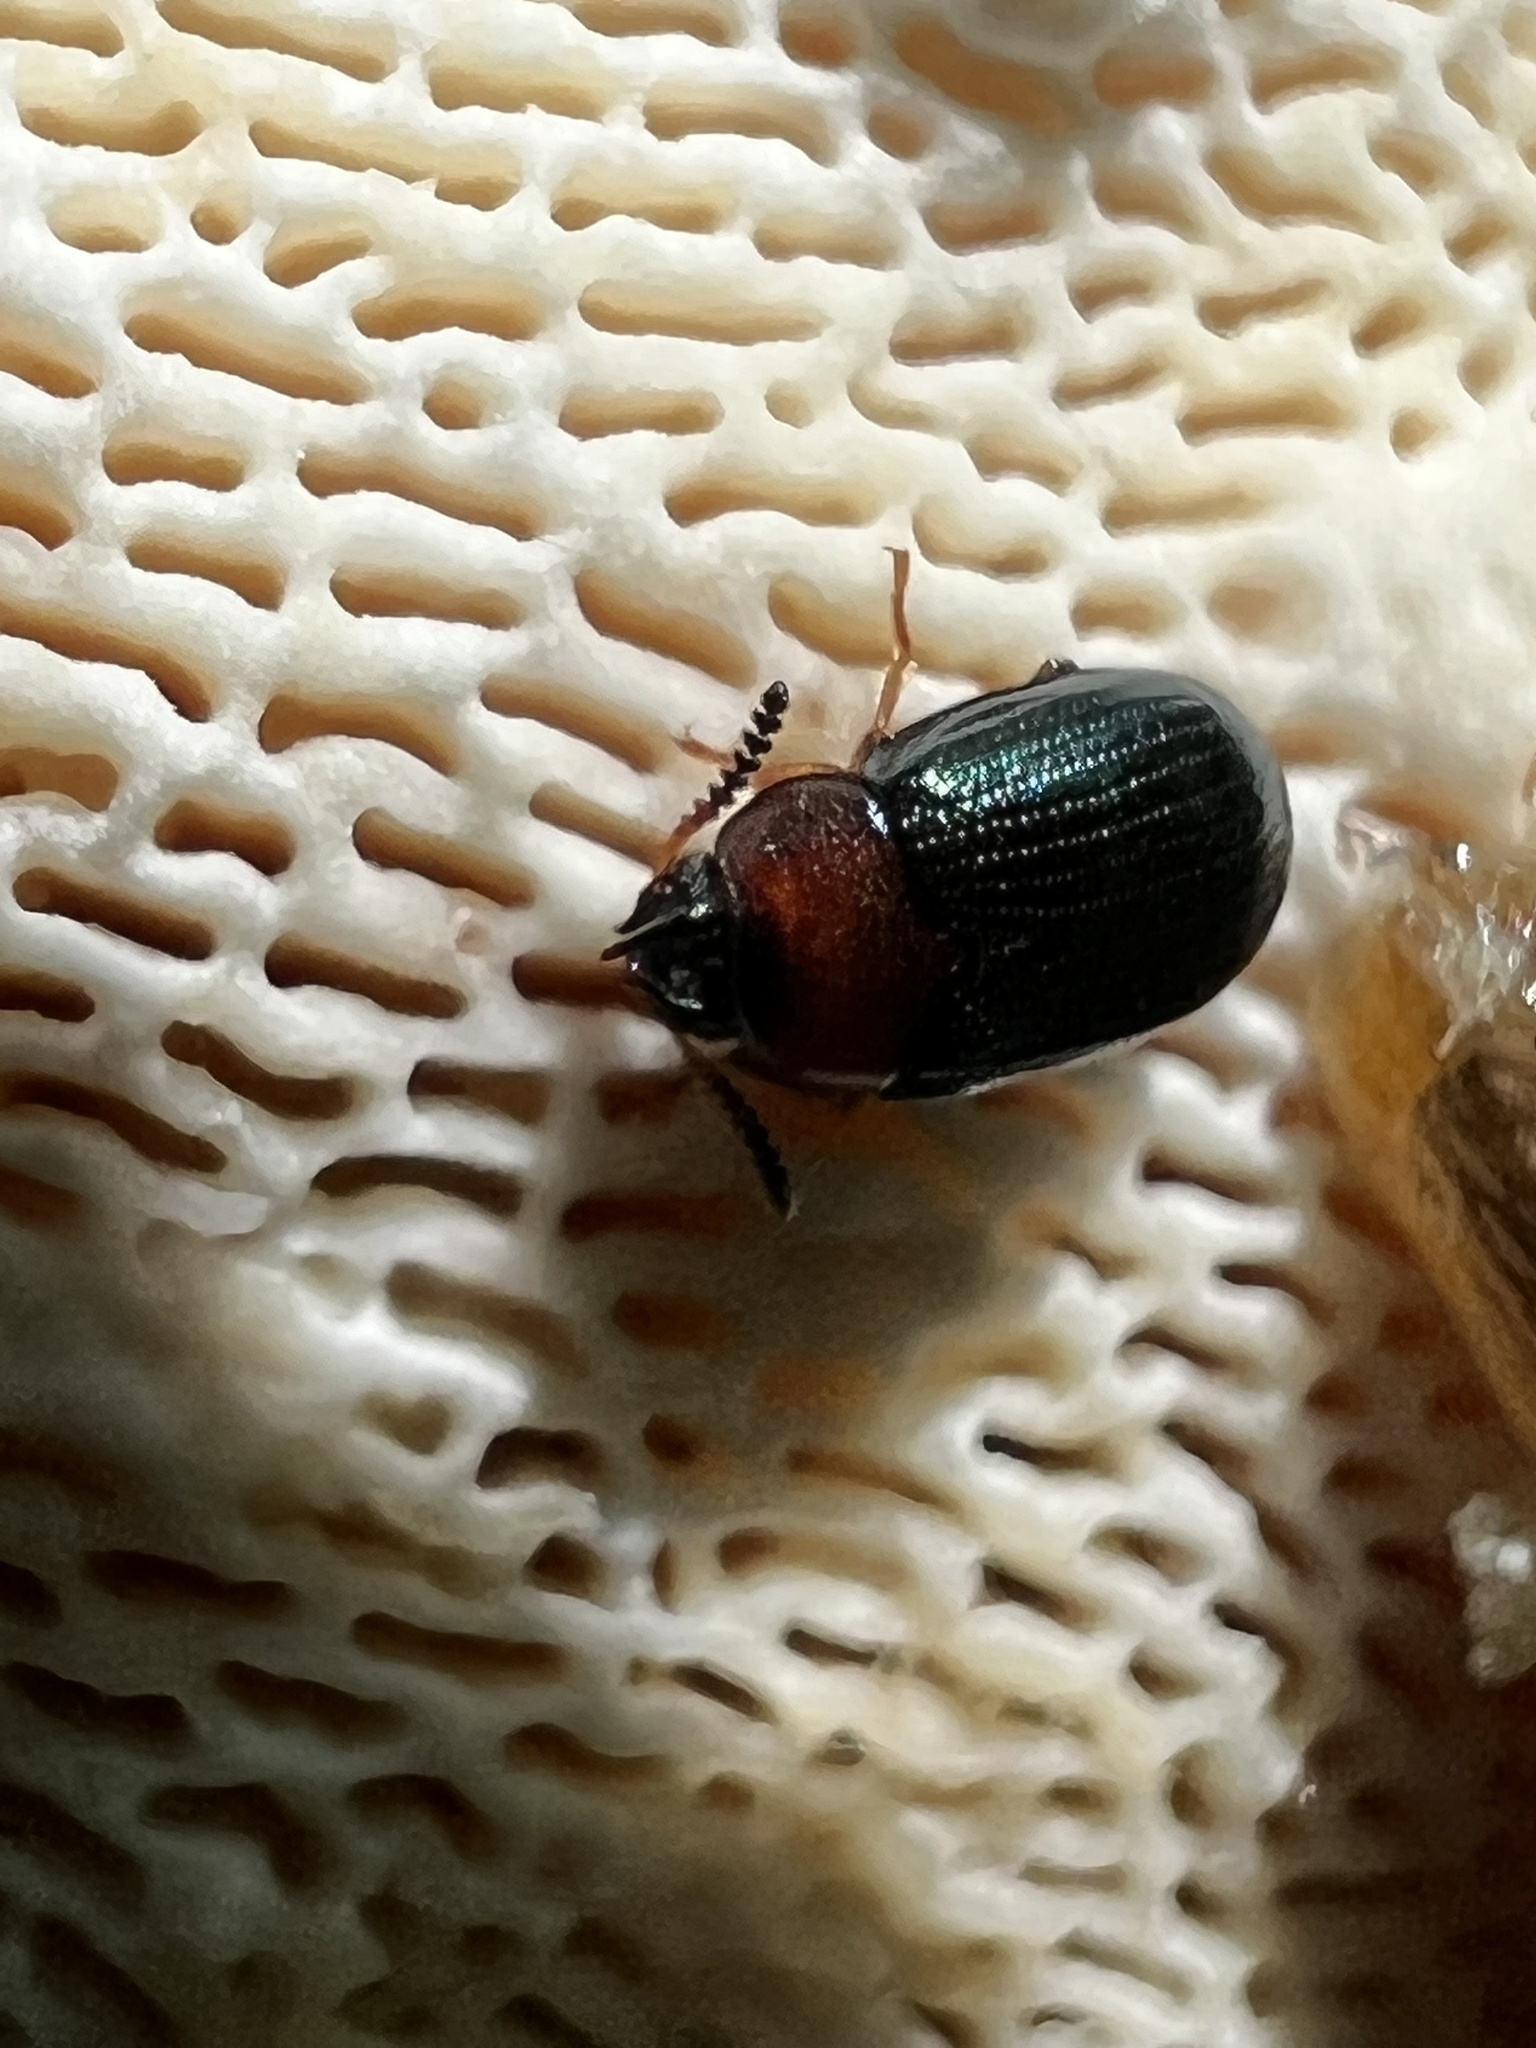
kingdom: Animalia
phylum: Arthropoda
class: Insecta
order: Coleoptera
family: Tenebrionidae
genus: Neomida
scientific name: Neomida bicornis
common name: Two-horned darkling beetle
